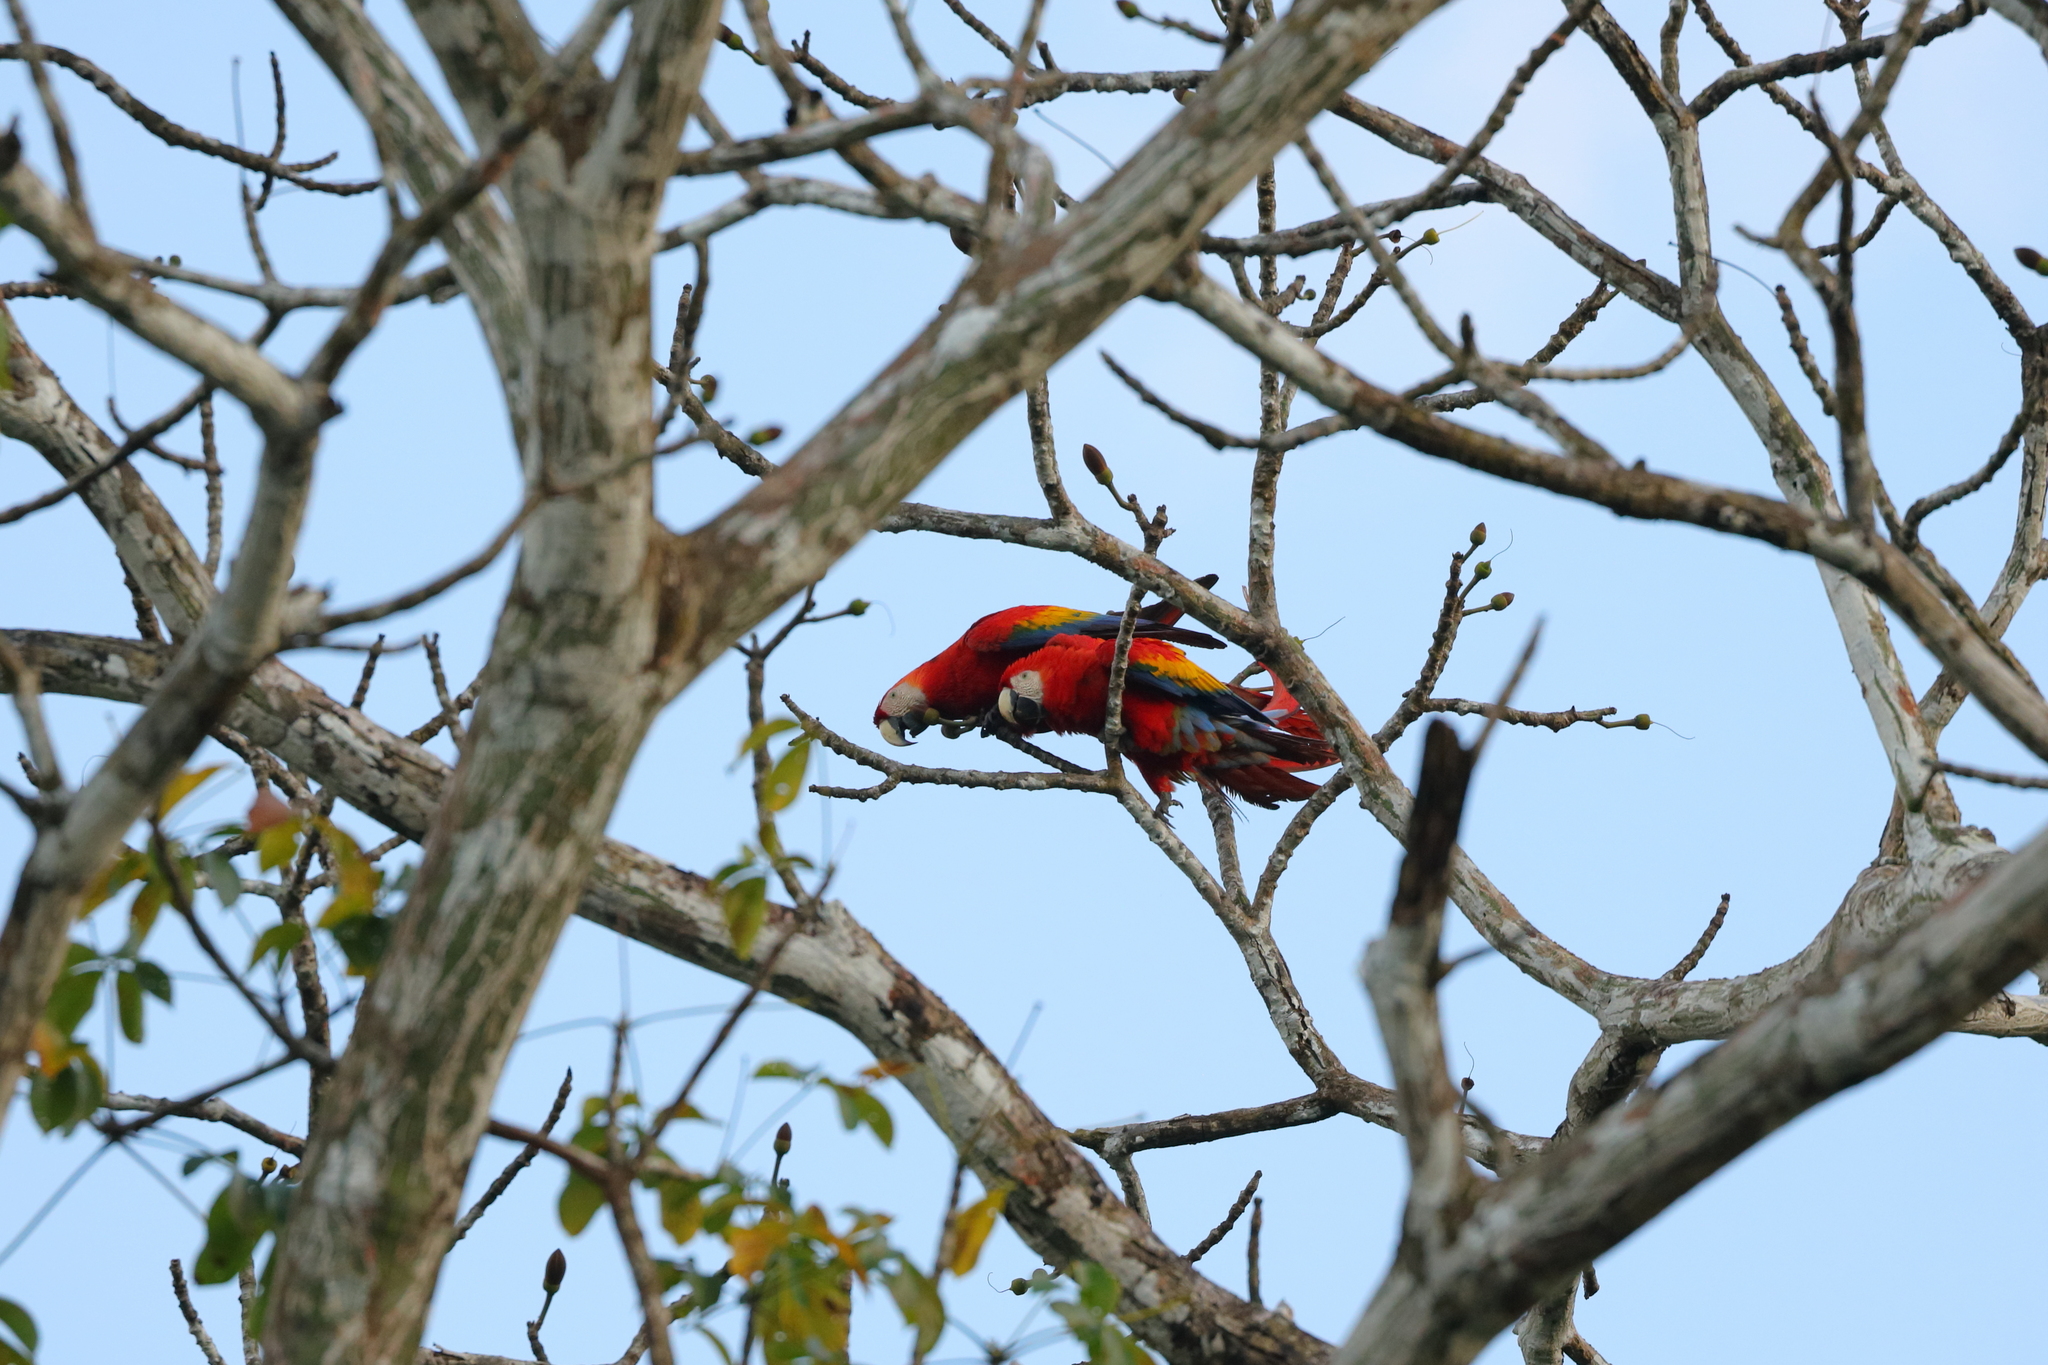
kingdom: Animalia
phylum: Chordata
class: Aves
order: Psittaciformes
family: Psittacidae
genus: Ara
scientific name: Ara macao
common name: Scarlet macaw
